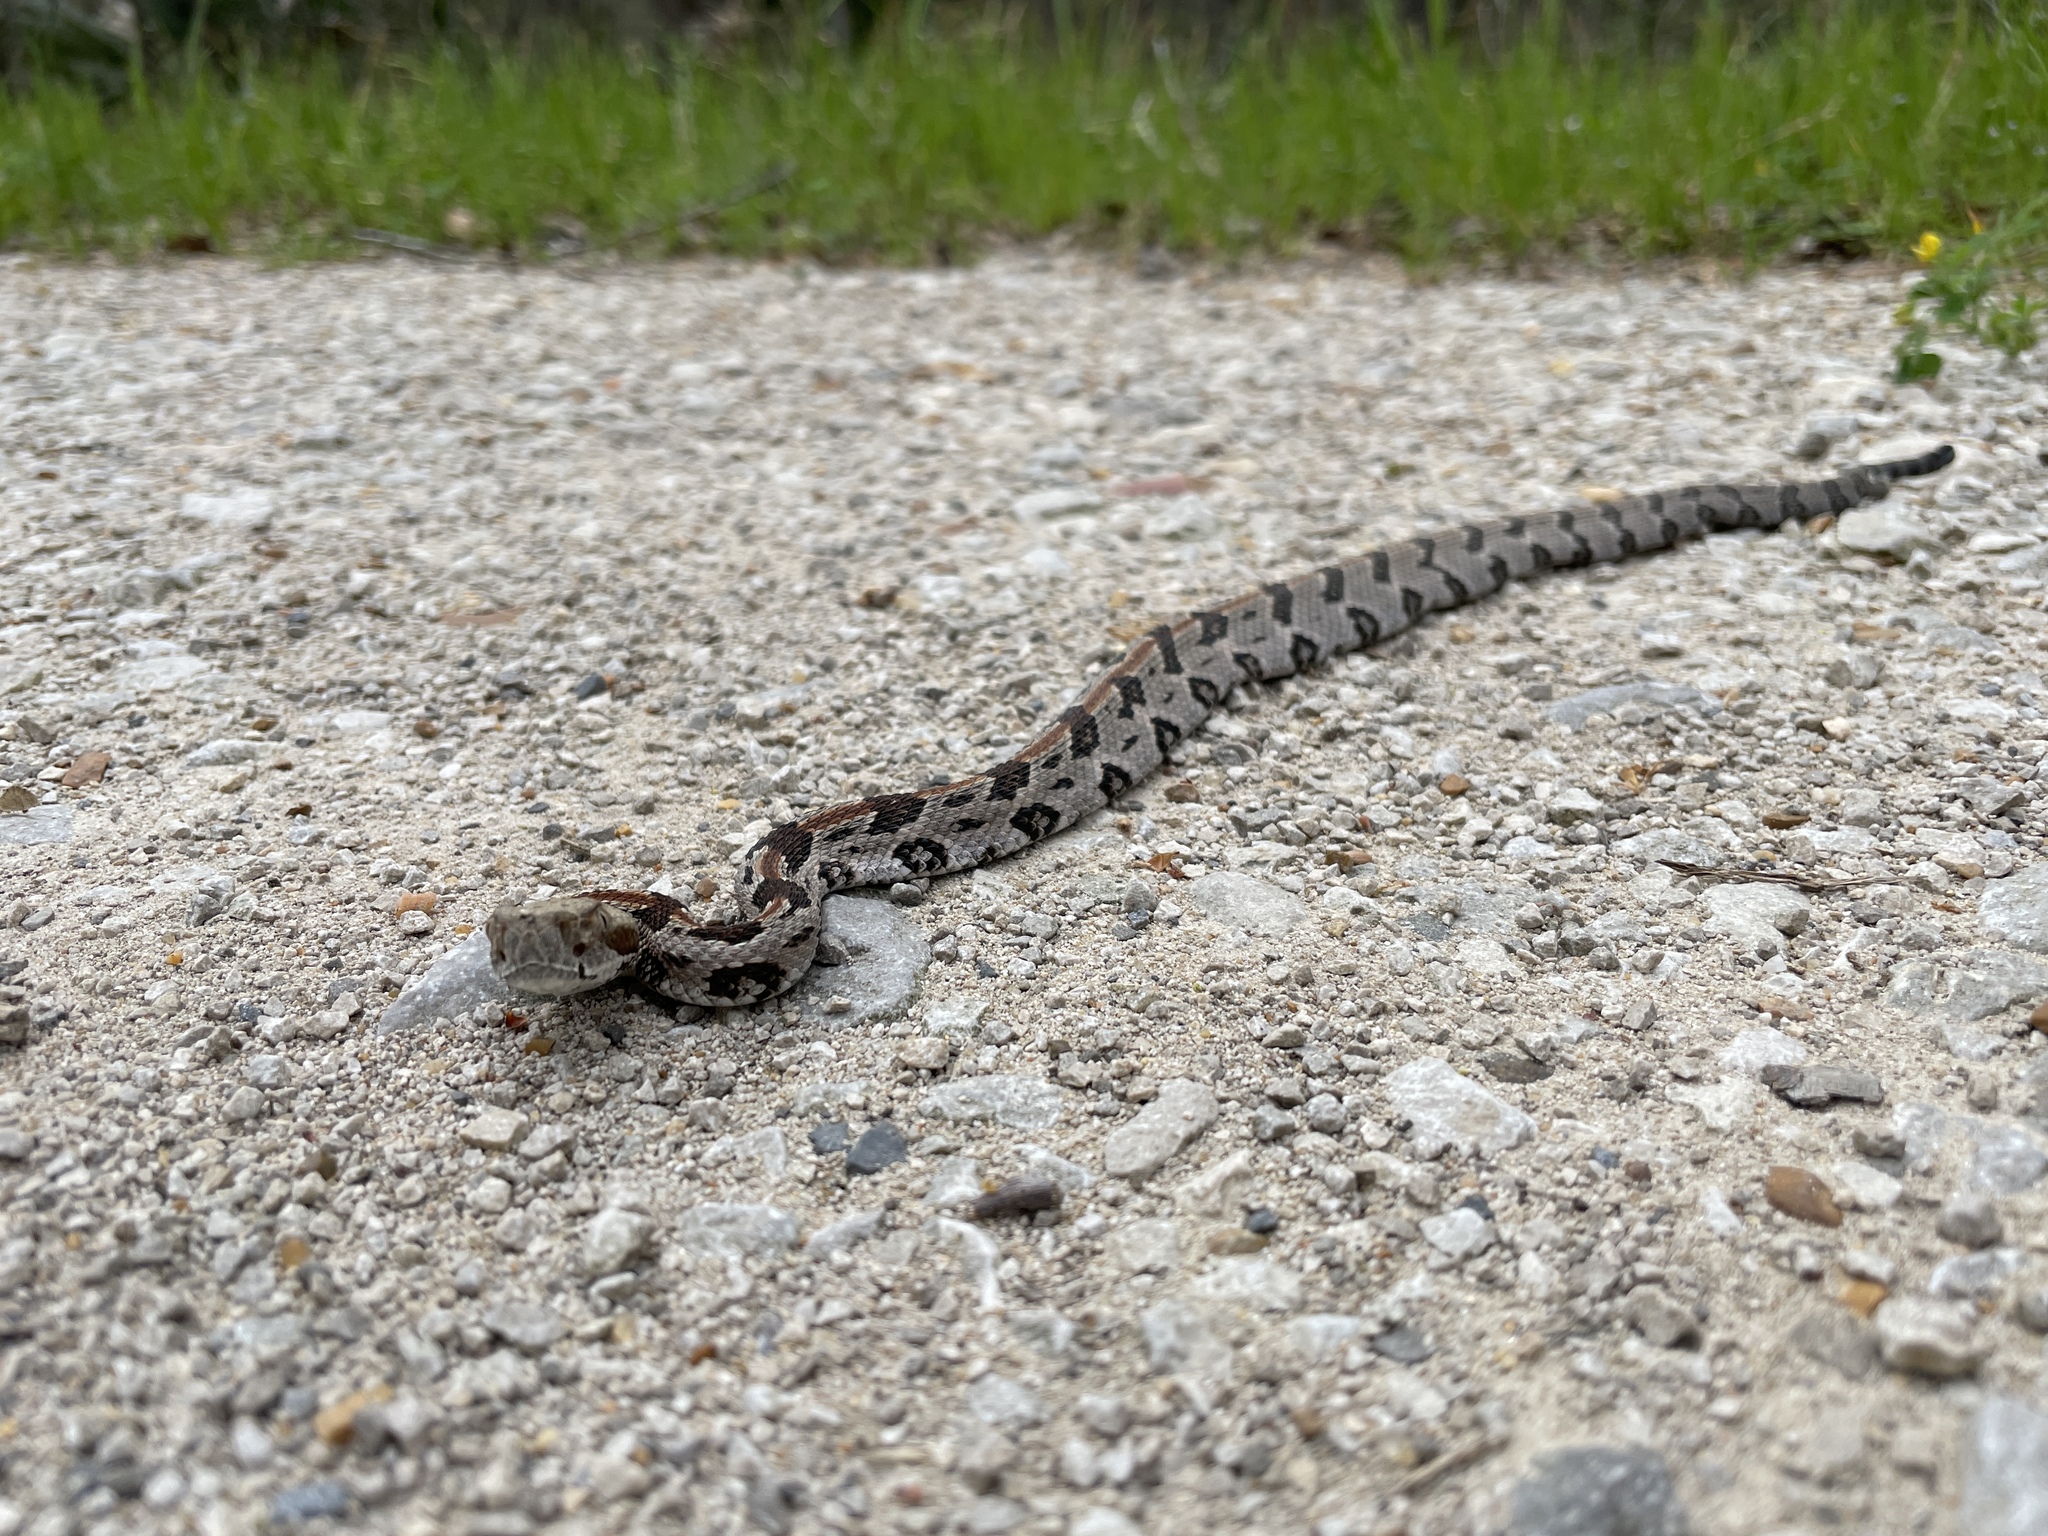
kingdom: Animalia
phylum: Chordata
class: Squamata
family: Viperidae
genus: Crotalus
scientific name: Crotalus horridus
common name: Timber rattlesnake
